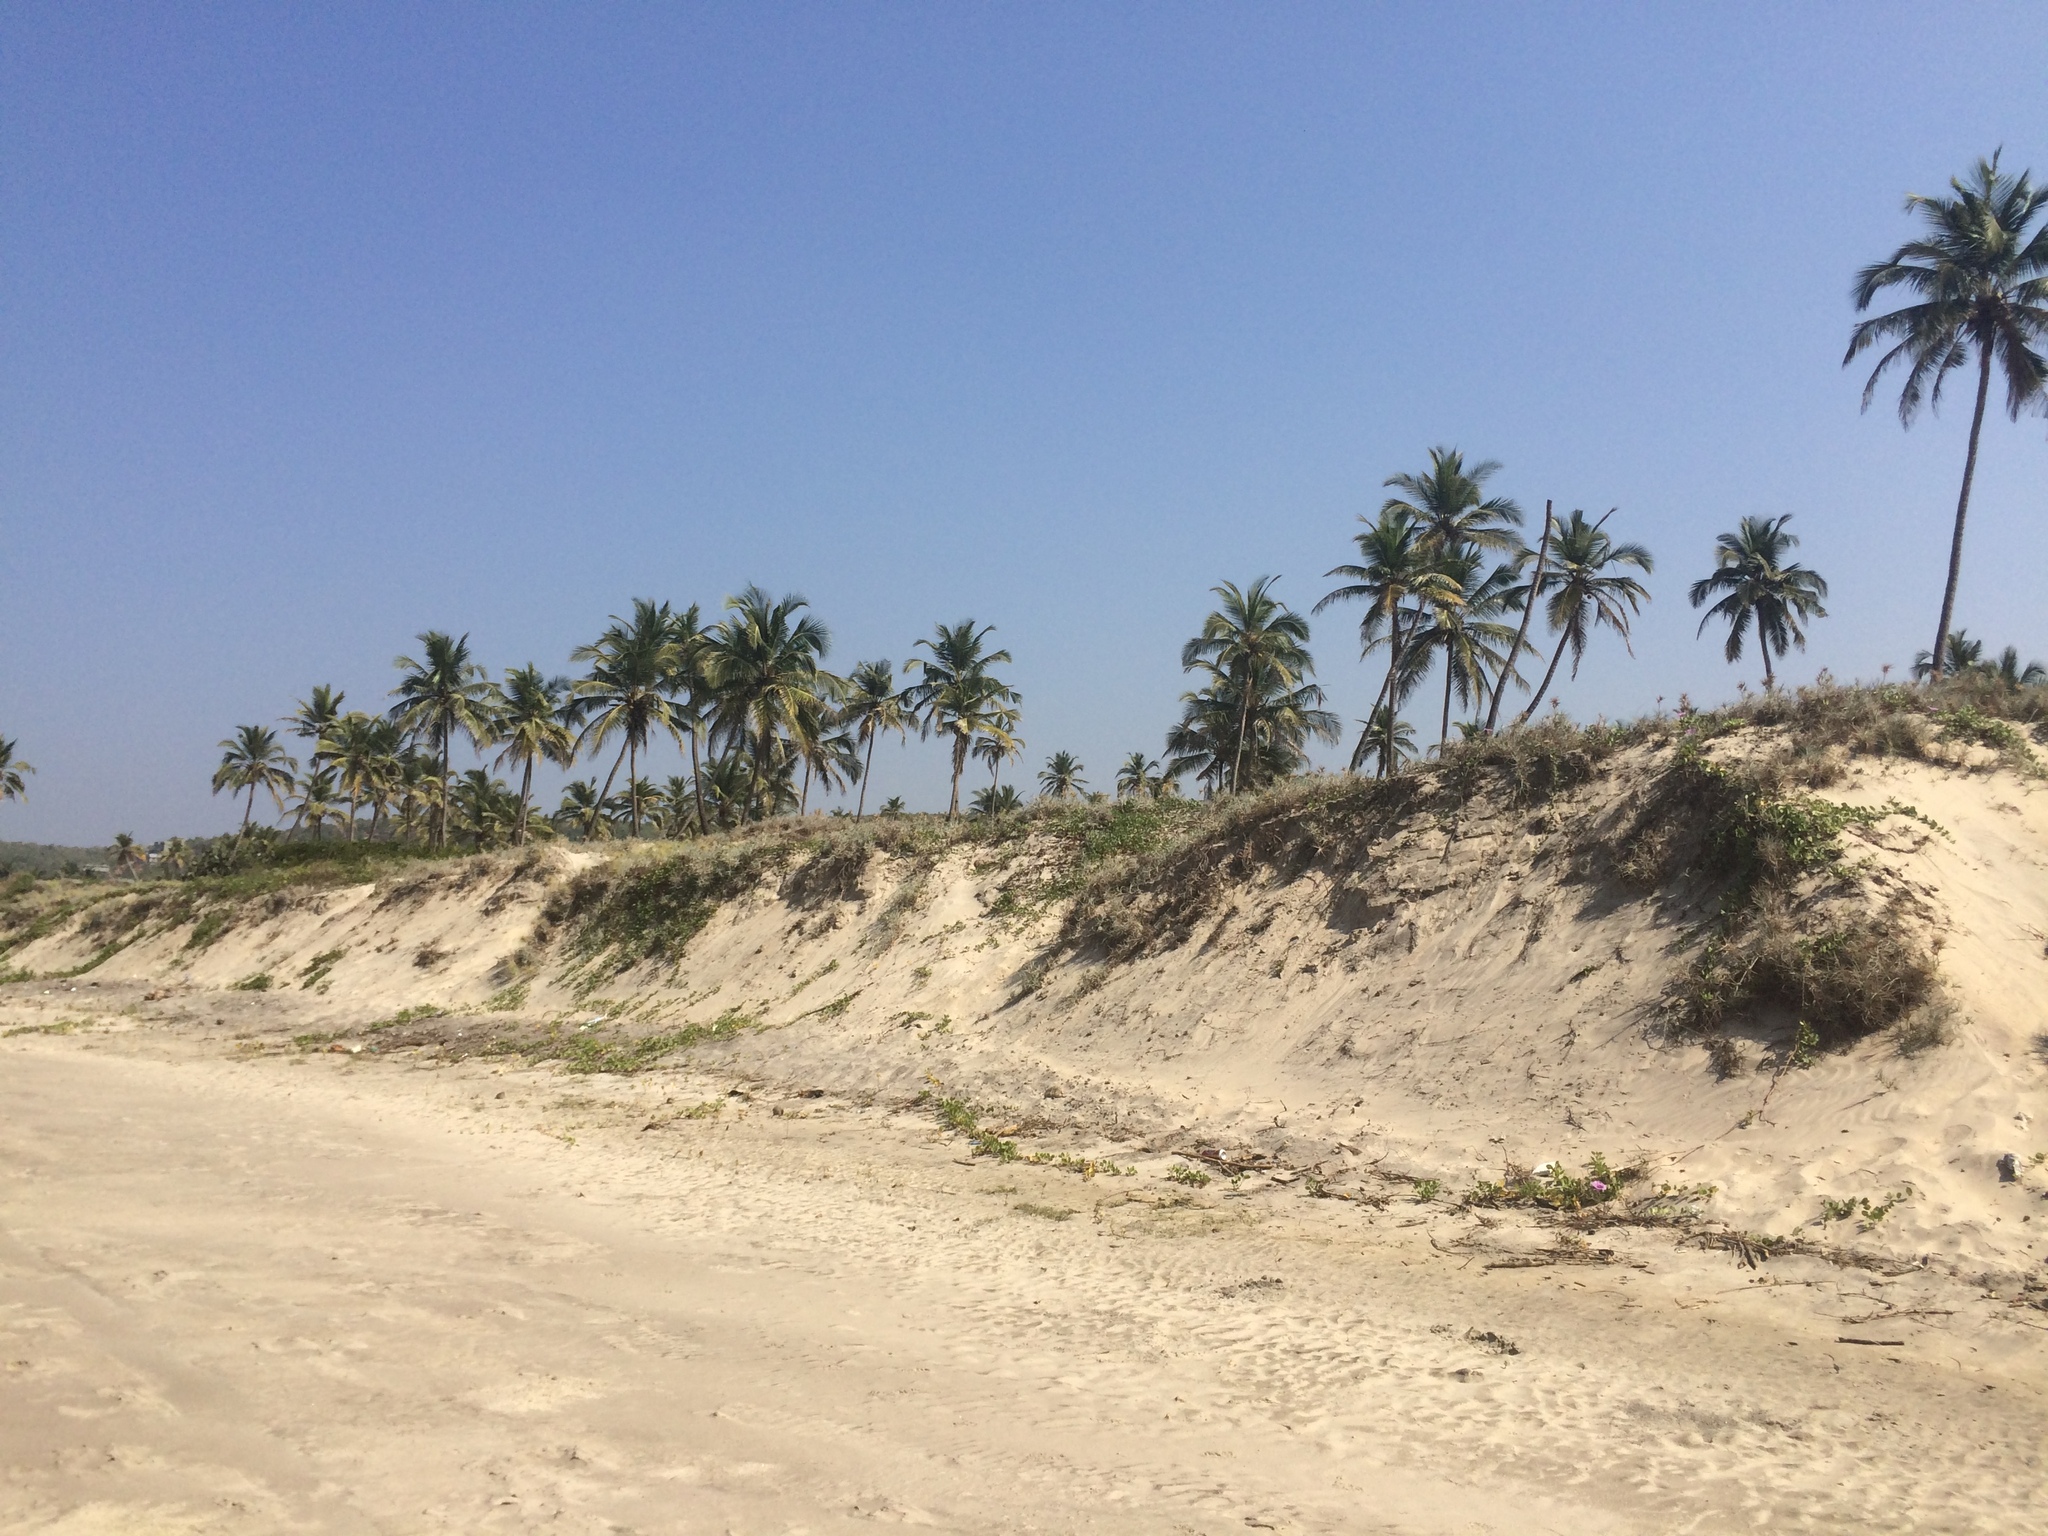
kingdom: Plantae
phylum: Tracheophyta
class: Liliopsida
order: Arecales
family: Arecaceae
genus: Cocos
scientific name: Cocos nucifera
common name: Coconut palm
